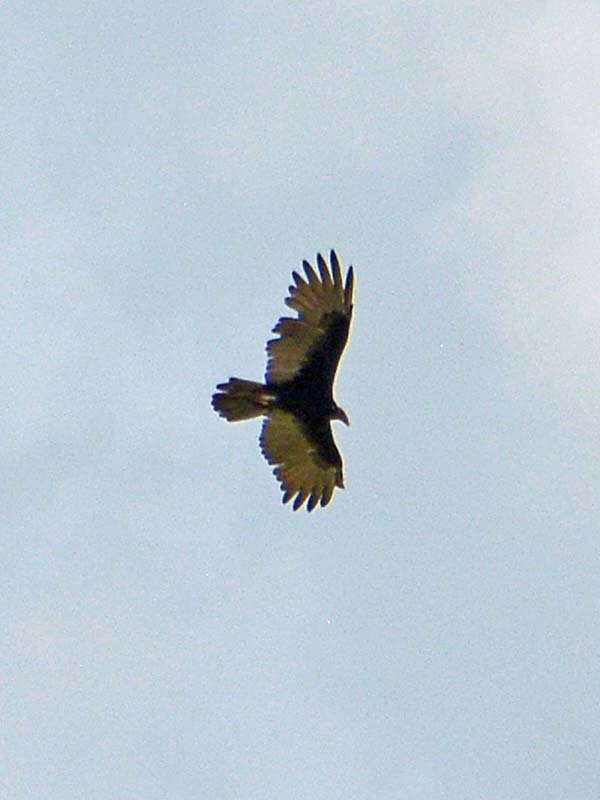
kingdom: Animalia
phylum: Chordata
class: Aves
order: Accipitriformes
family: Cathartidae
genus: Cathartes
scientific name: Cathartes aura
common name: Turkey vulture
